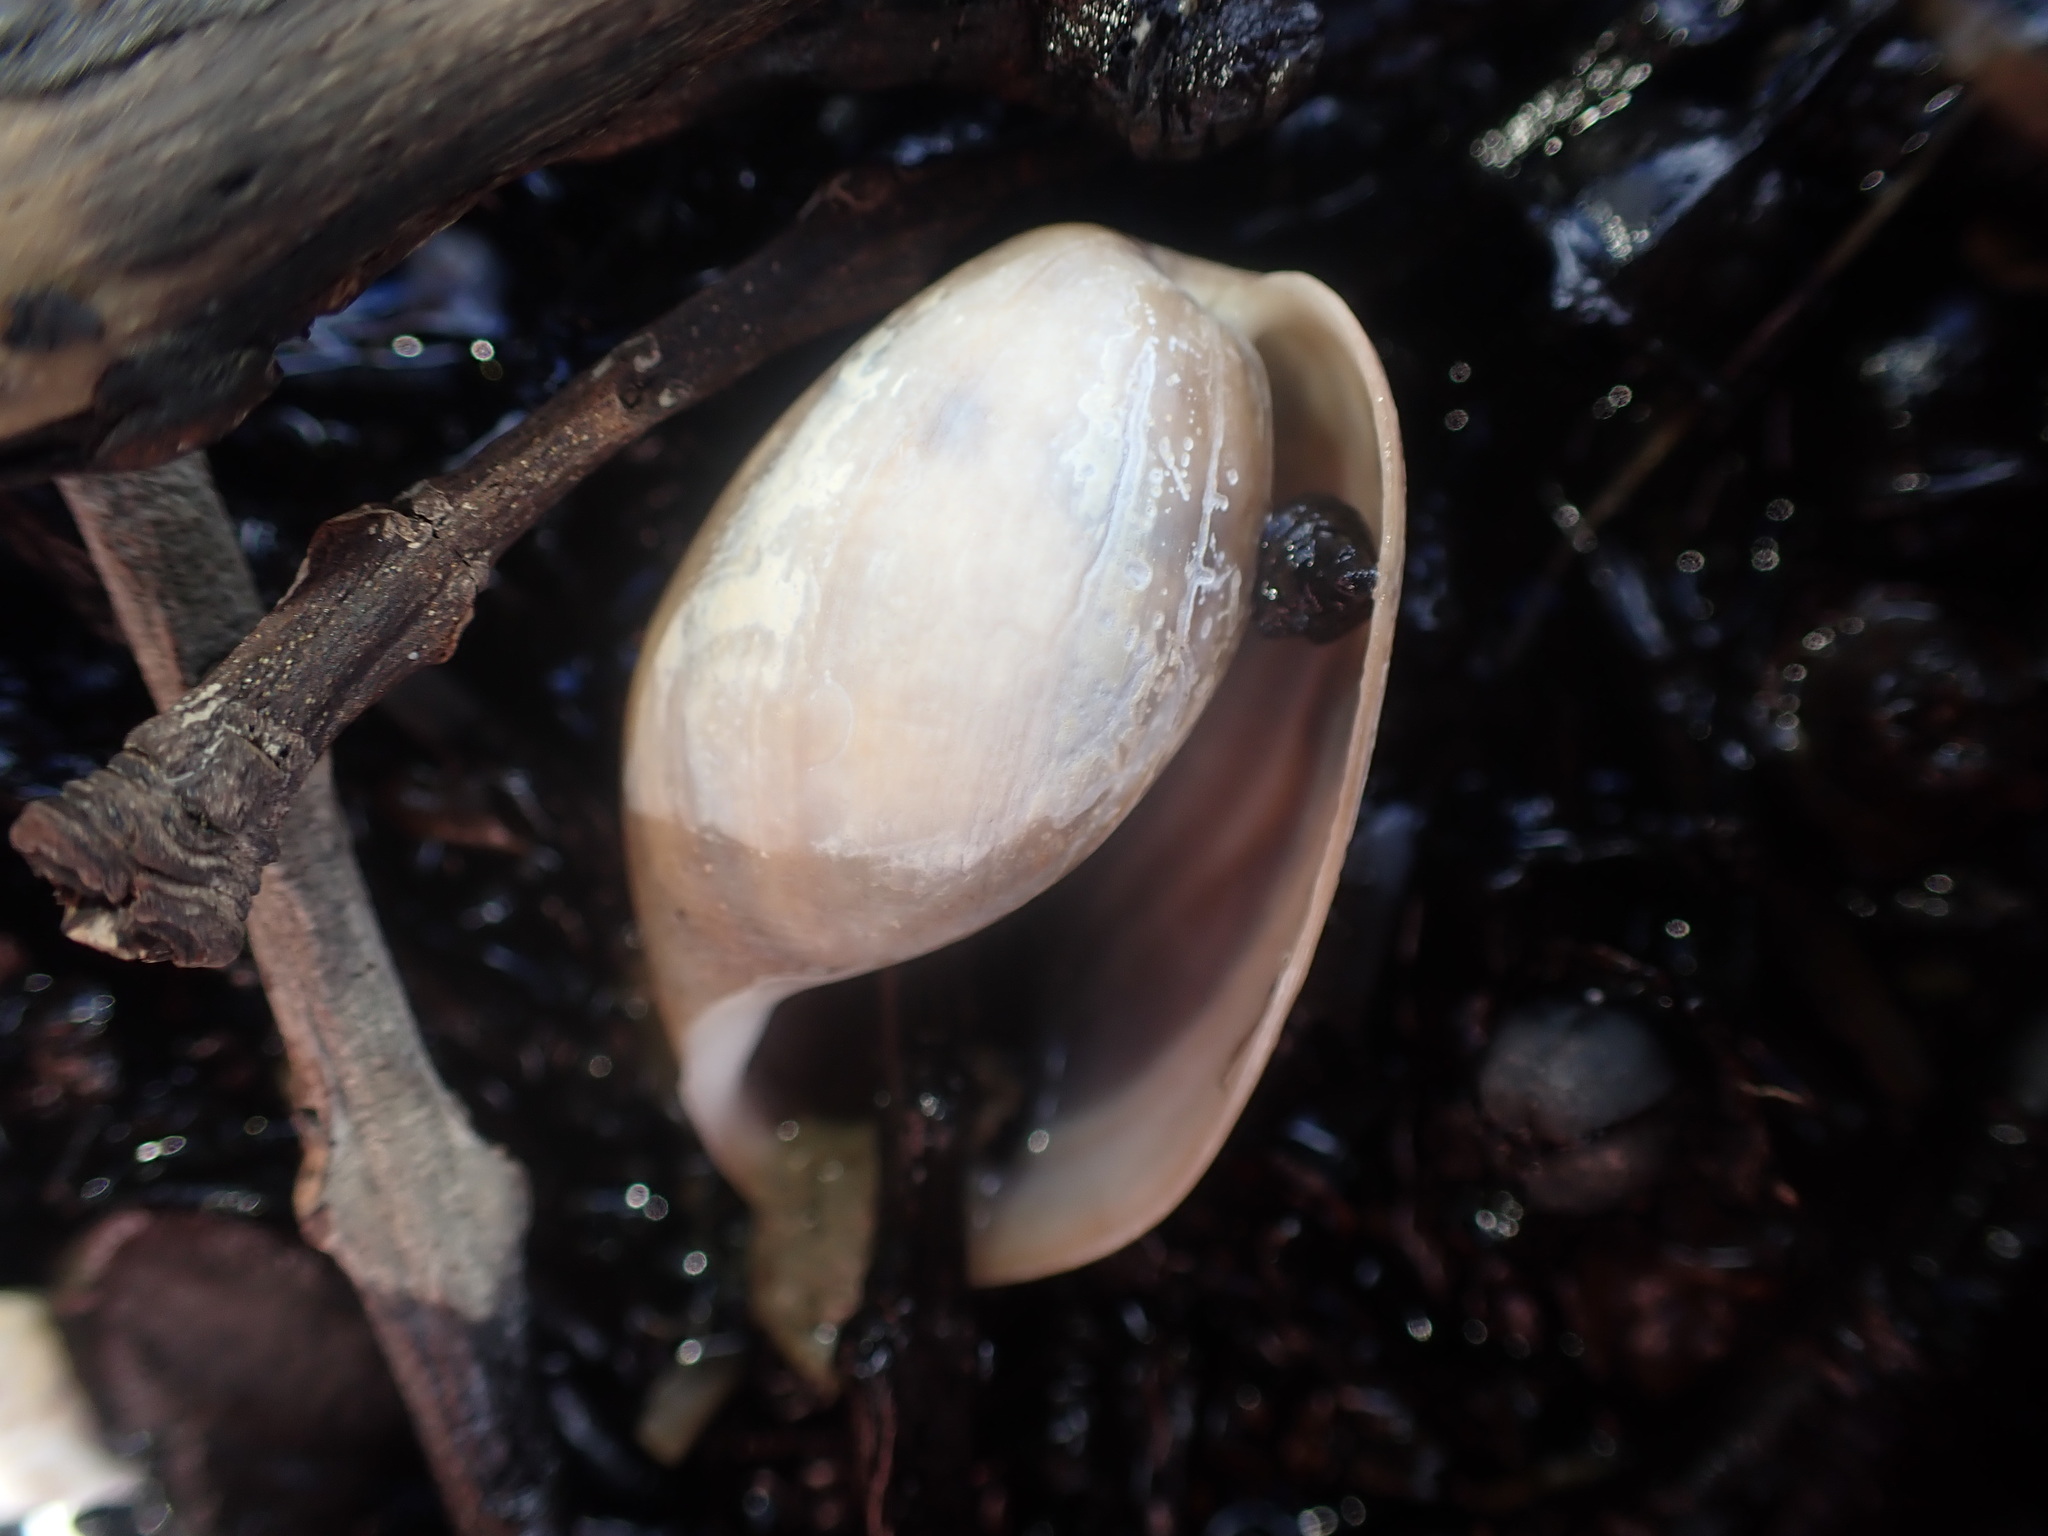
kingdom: Animalia
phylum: Mollusca
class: Gastropoda
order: Cephalaspidea
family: Bullidae
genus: Bulla
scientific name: Bulla quoyii
